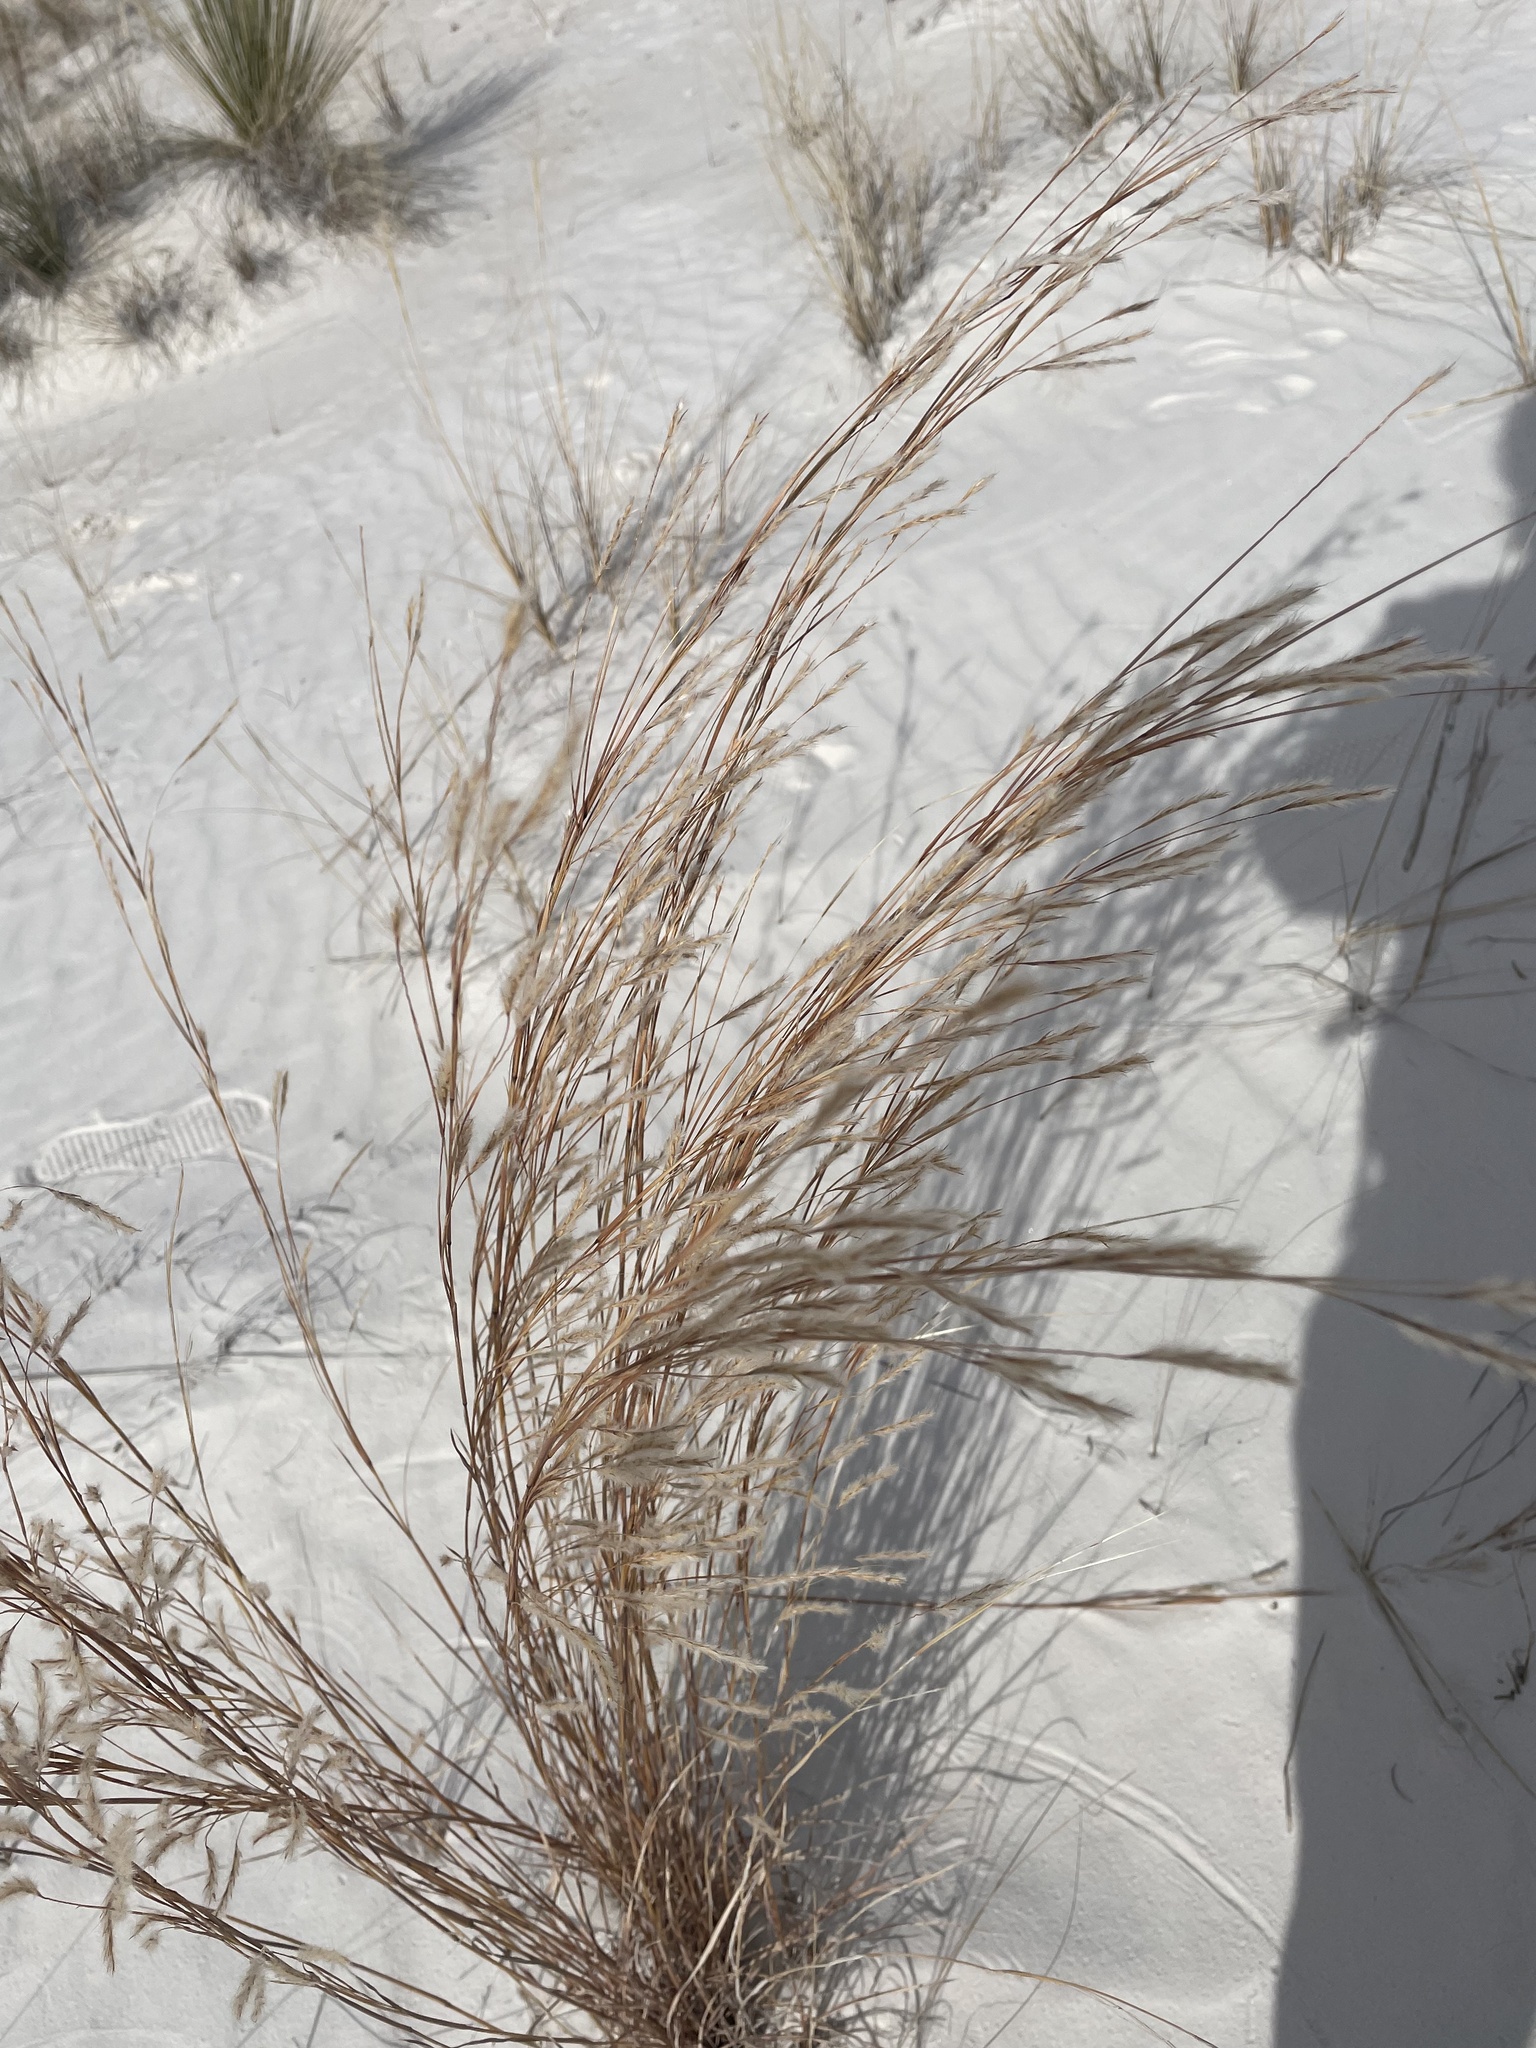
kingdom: Plantae
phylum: Tracheophyta
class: Liliopsida
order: Poales
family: Poaceae
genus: Schizachyrium
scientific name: Schizachyrium scoparium
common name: Little bluestem
